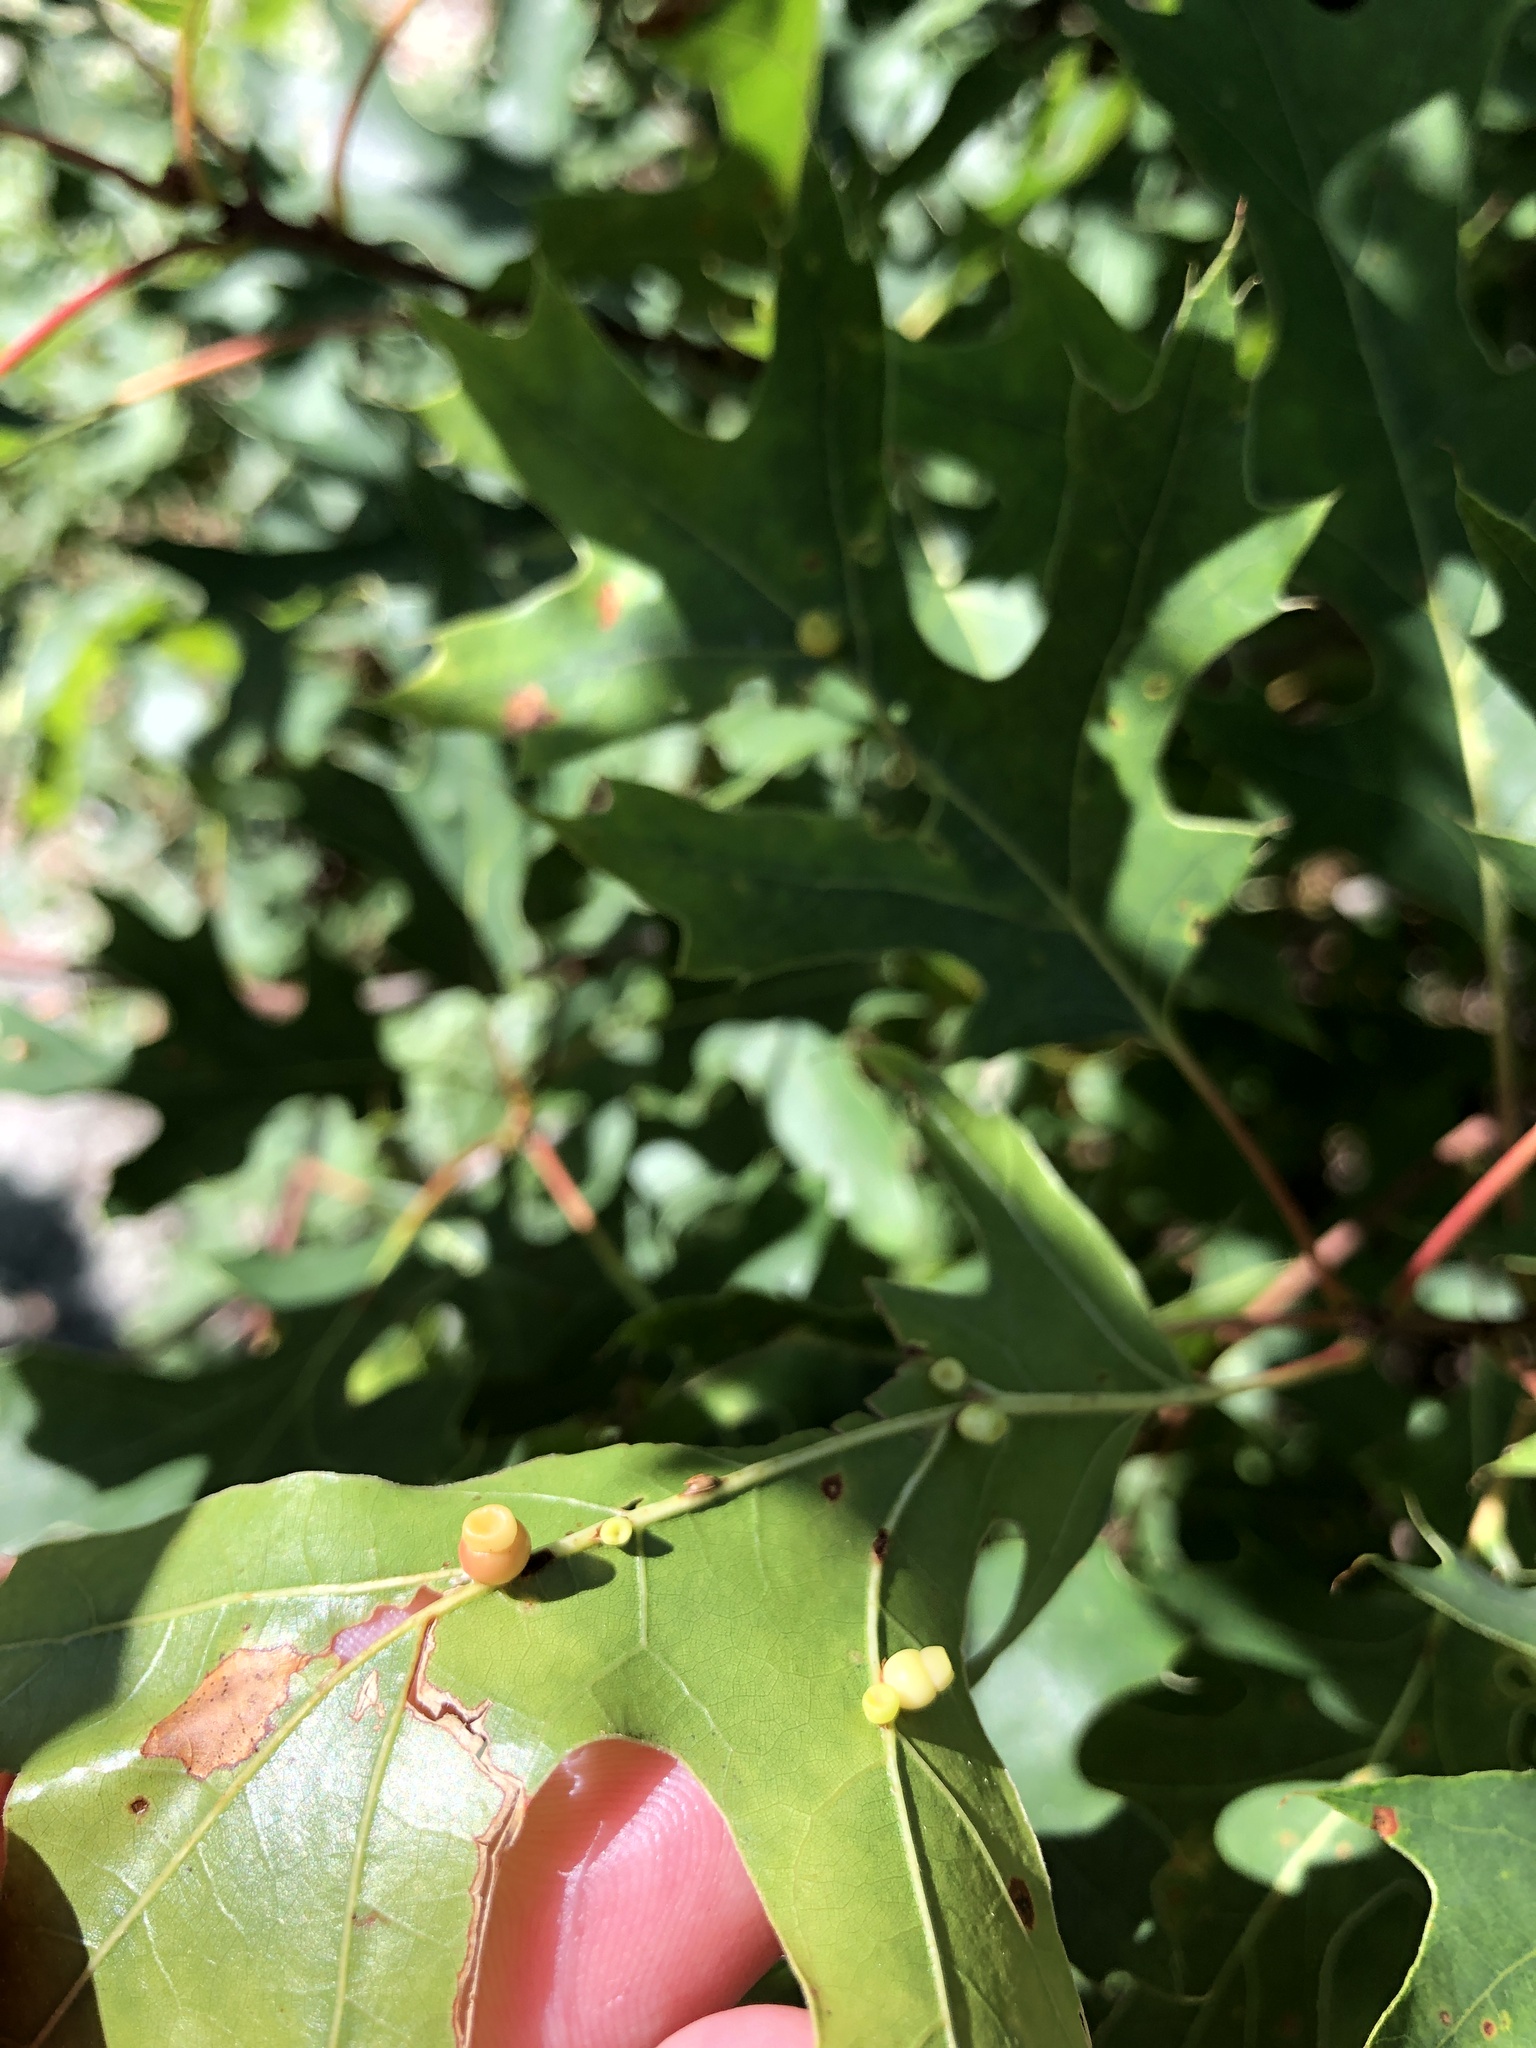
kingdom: Animalia
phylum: Arthropoda
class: Insecta
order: Hymenoptera
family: Cynipidae
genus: Kokkocynips
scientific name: Kokkocynips rileyi
